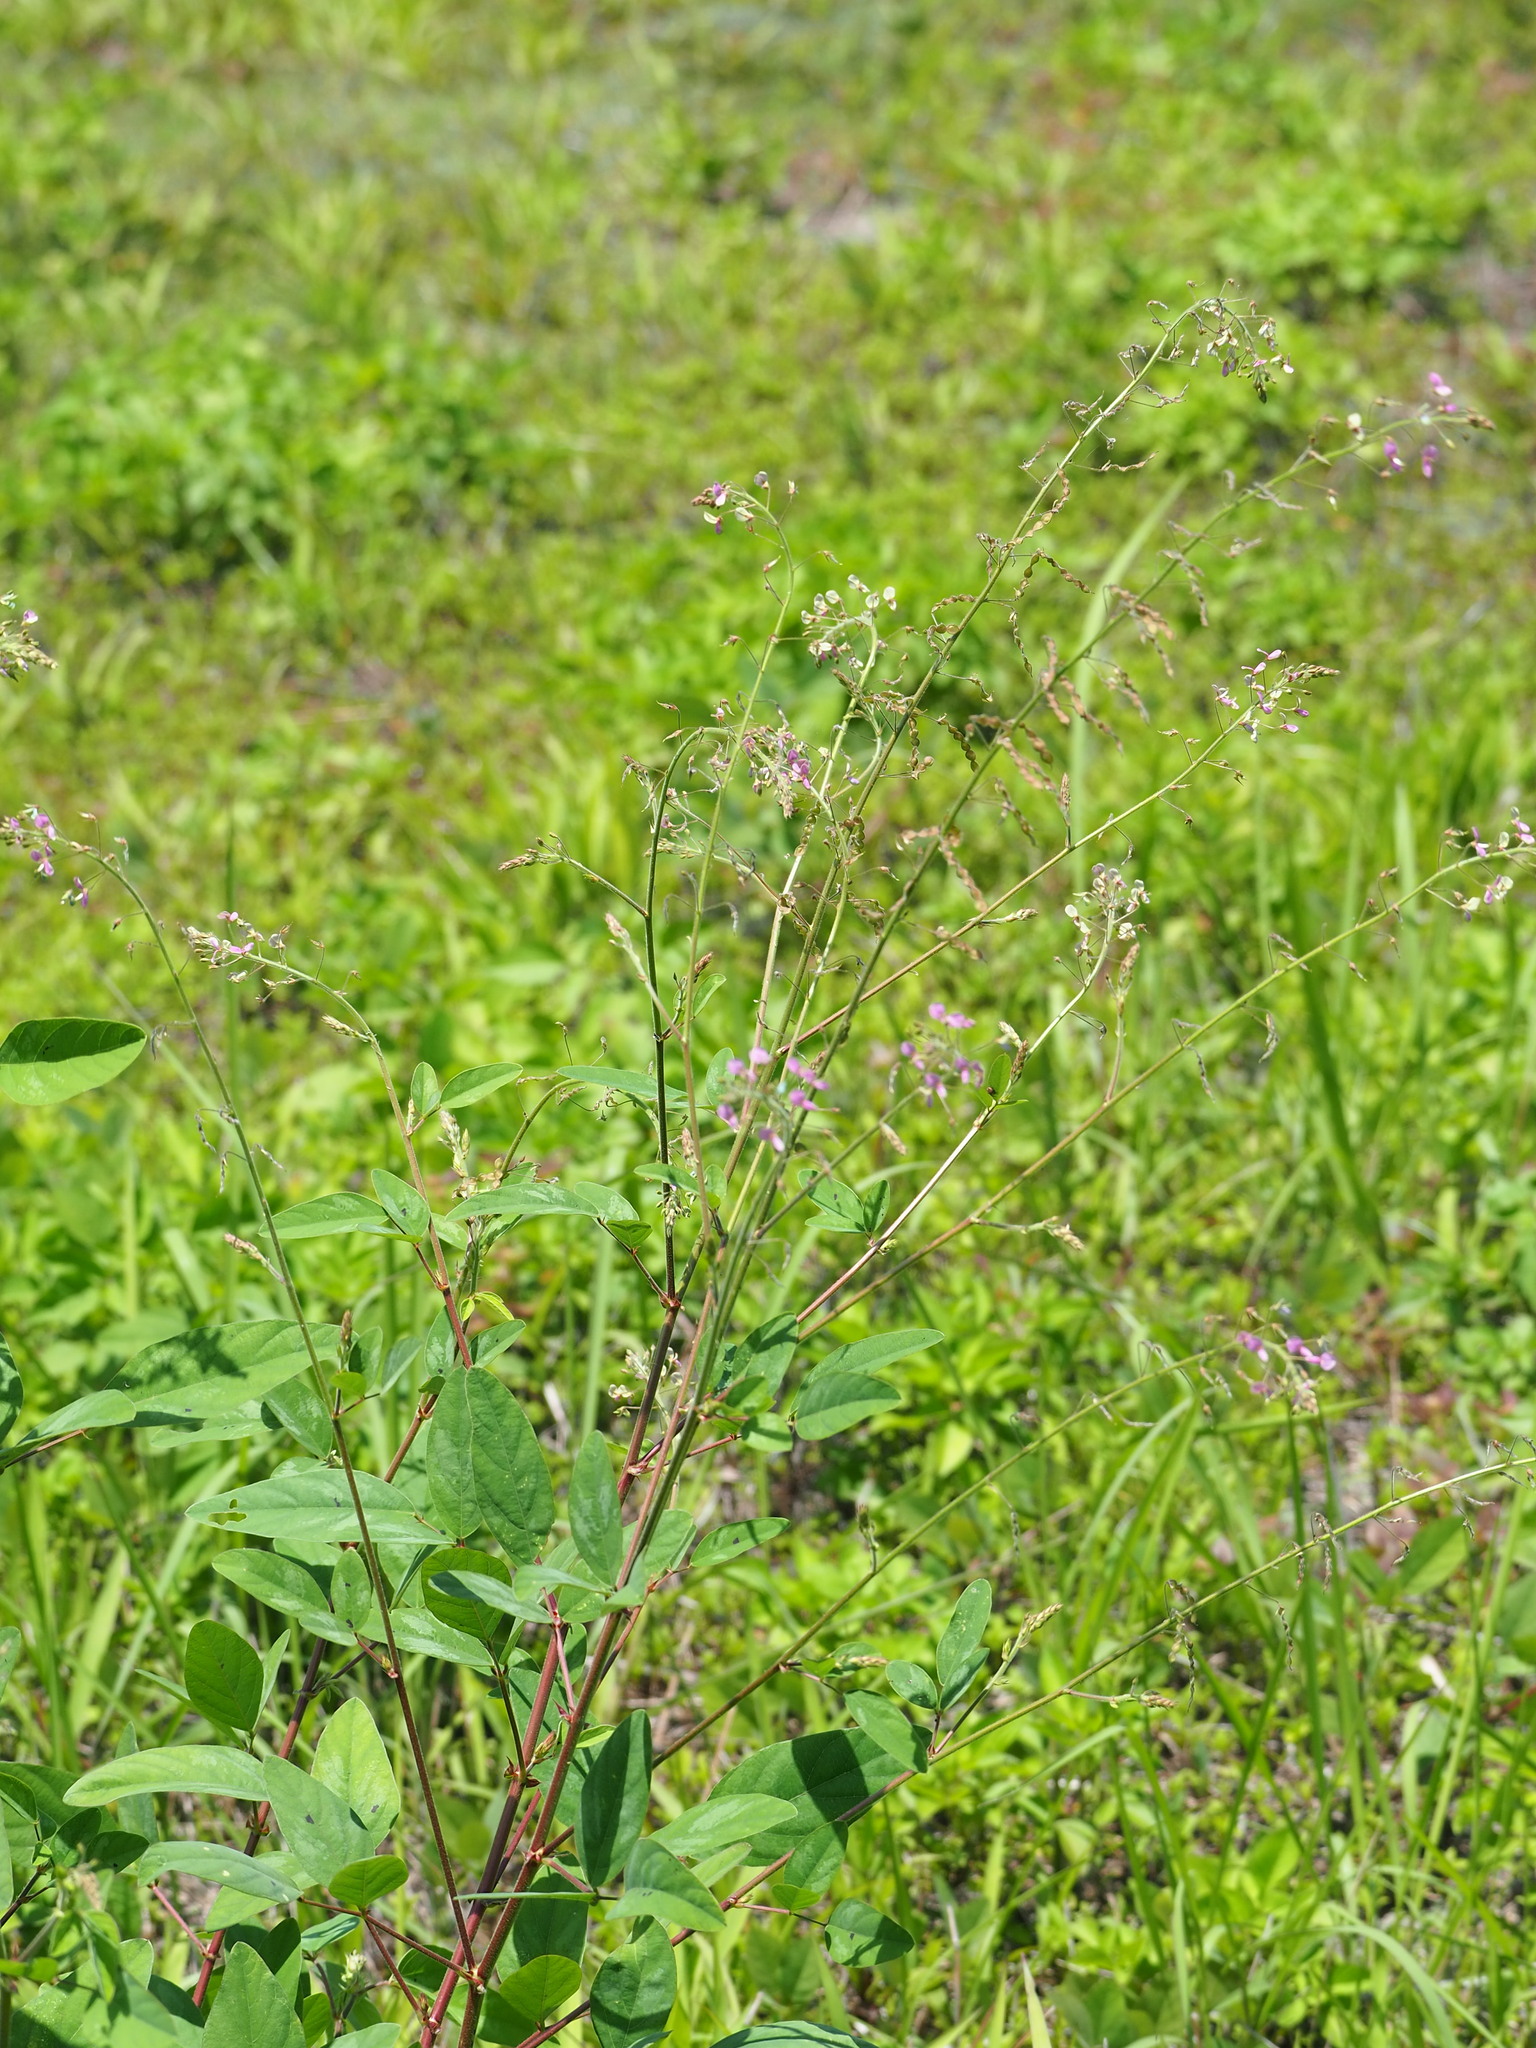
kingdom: Plantae
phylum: Tracheophyta
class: Magnoliopsida
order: Fabales
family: Fabaceae
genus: Desmodium
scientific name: Desmodium tortuosum
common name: Dixie ticktrefoil
